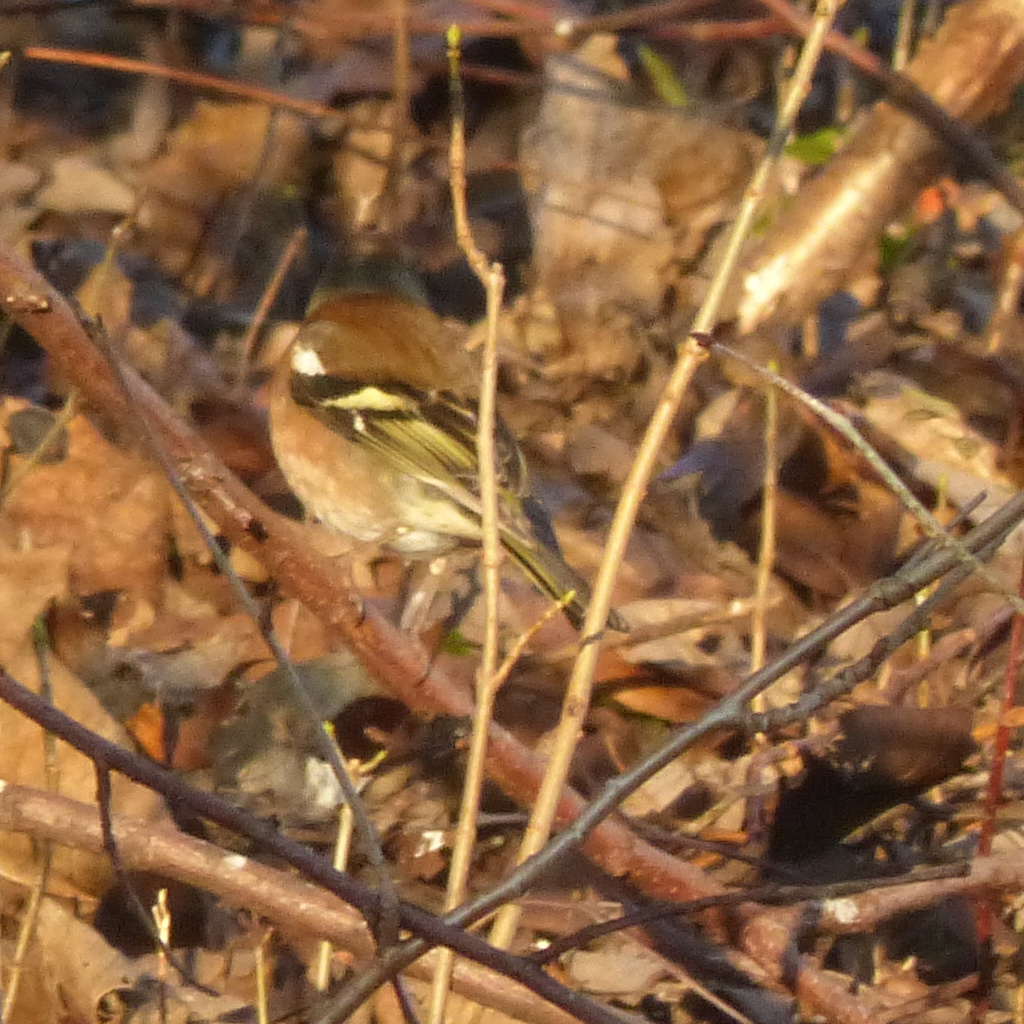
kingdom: Animalia
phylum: Chordata
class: Aves
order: Passeriformes
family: Fringillidae
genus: Fringilla
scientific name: Fringilla coelebs
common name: Common chaffinch
